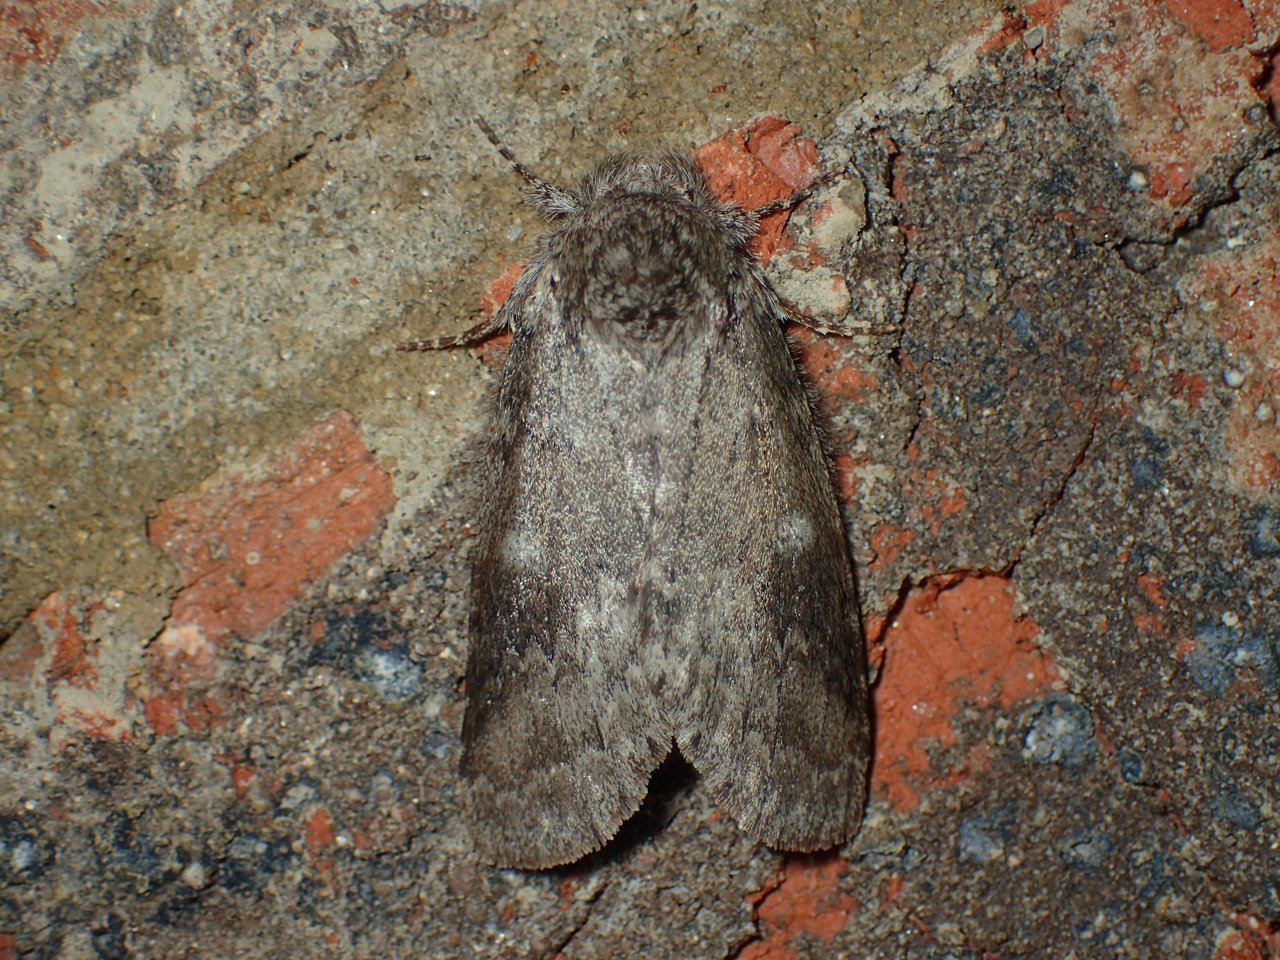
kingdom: Animalia
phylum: Arthropoda
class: Insecta
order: Lepidoptera
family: Notodontidae
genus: Lochmaeus
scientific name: Lochmaeus manteo
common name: Variable oakleaf caterpillar moth
